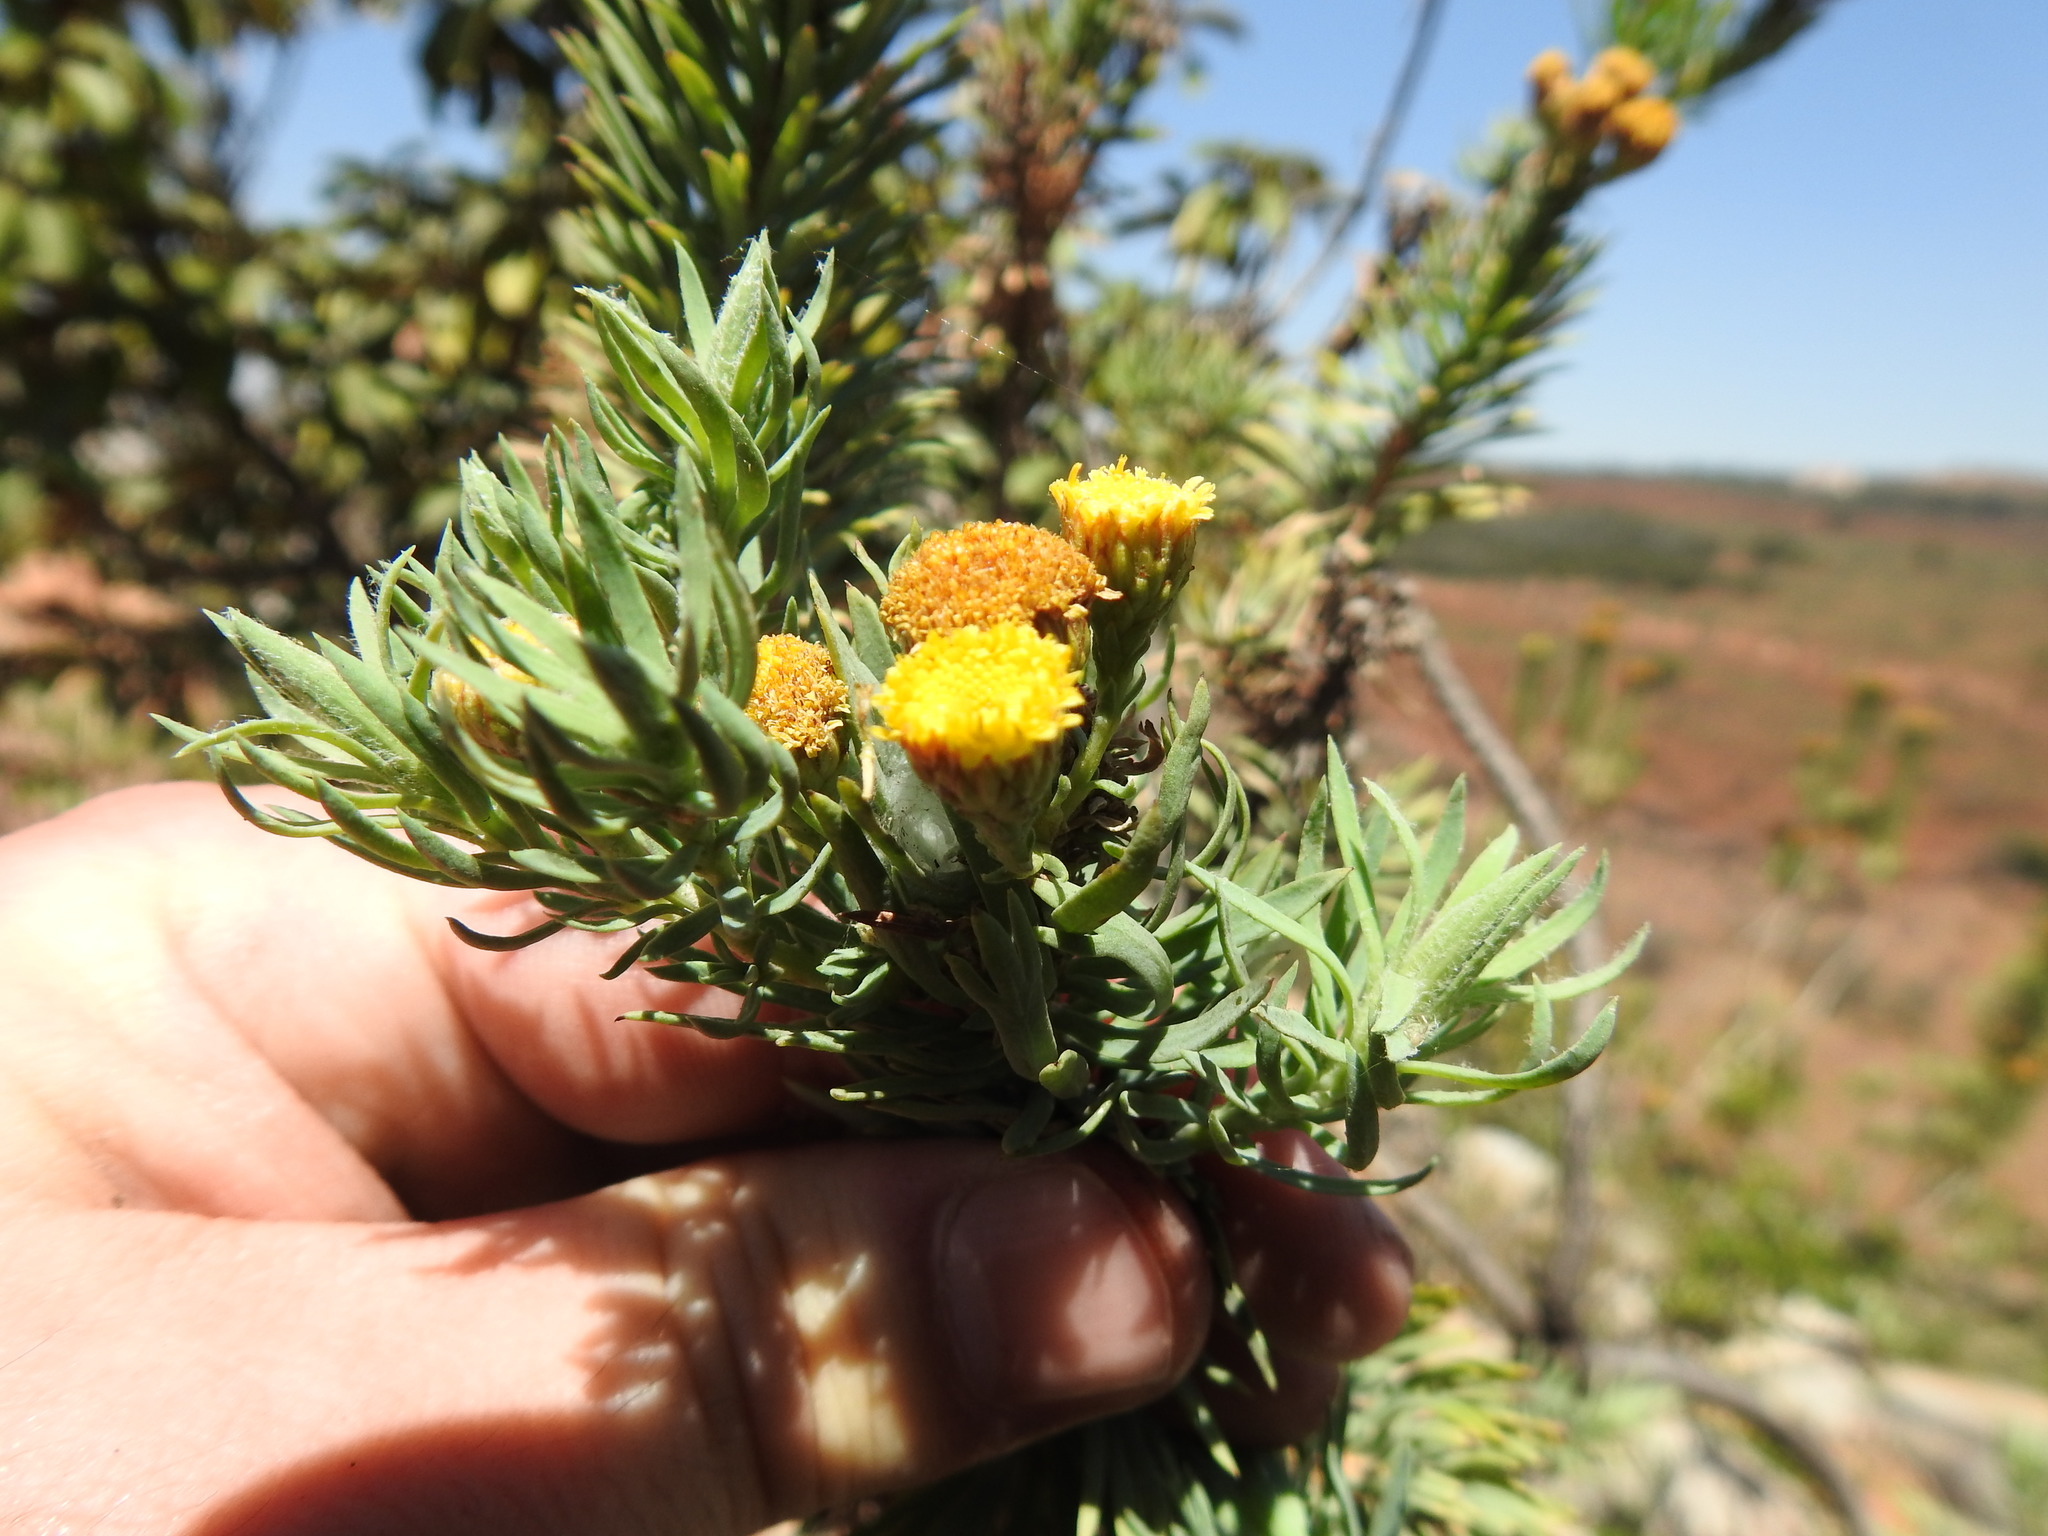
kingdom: Plantae
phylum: Tracheophyta
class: Magnoliopsida
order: Asterales
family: Asteraceae
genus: Phymaspermum
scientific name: Phymaspermum athanasioides
